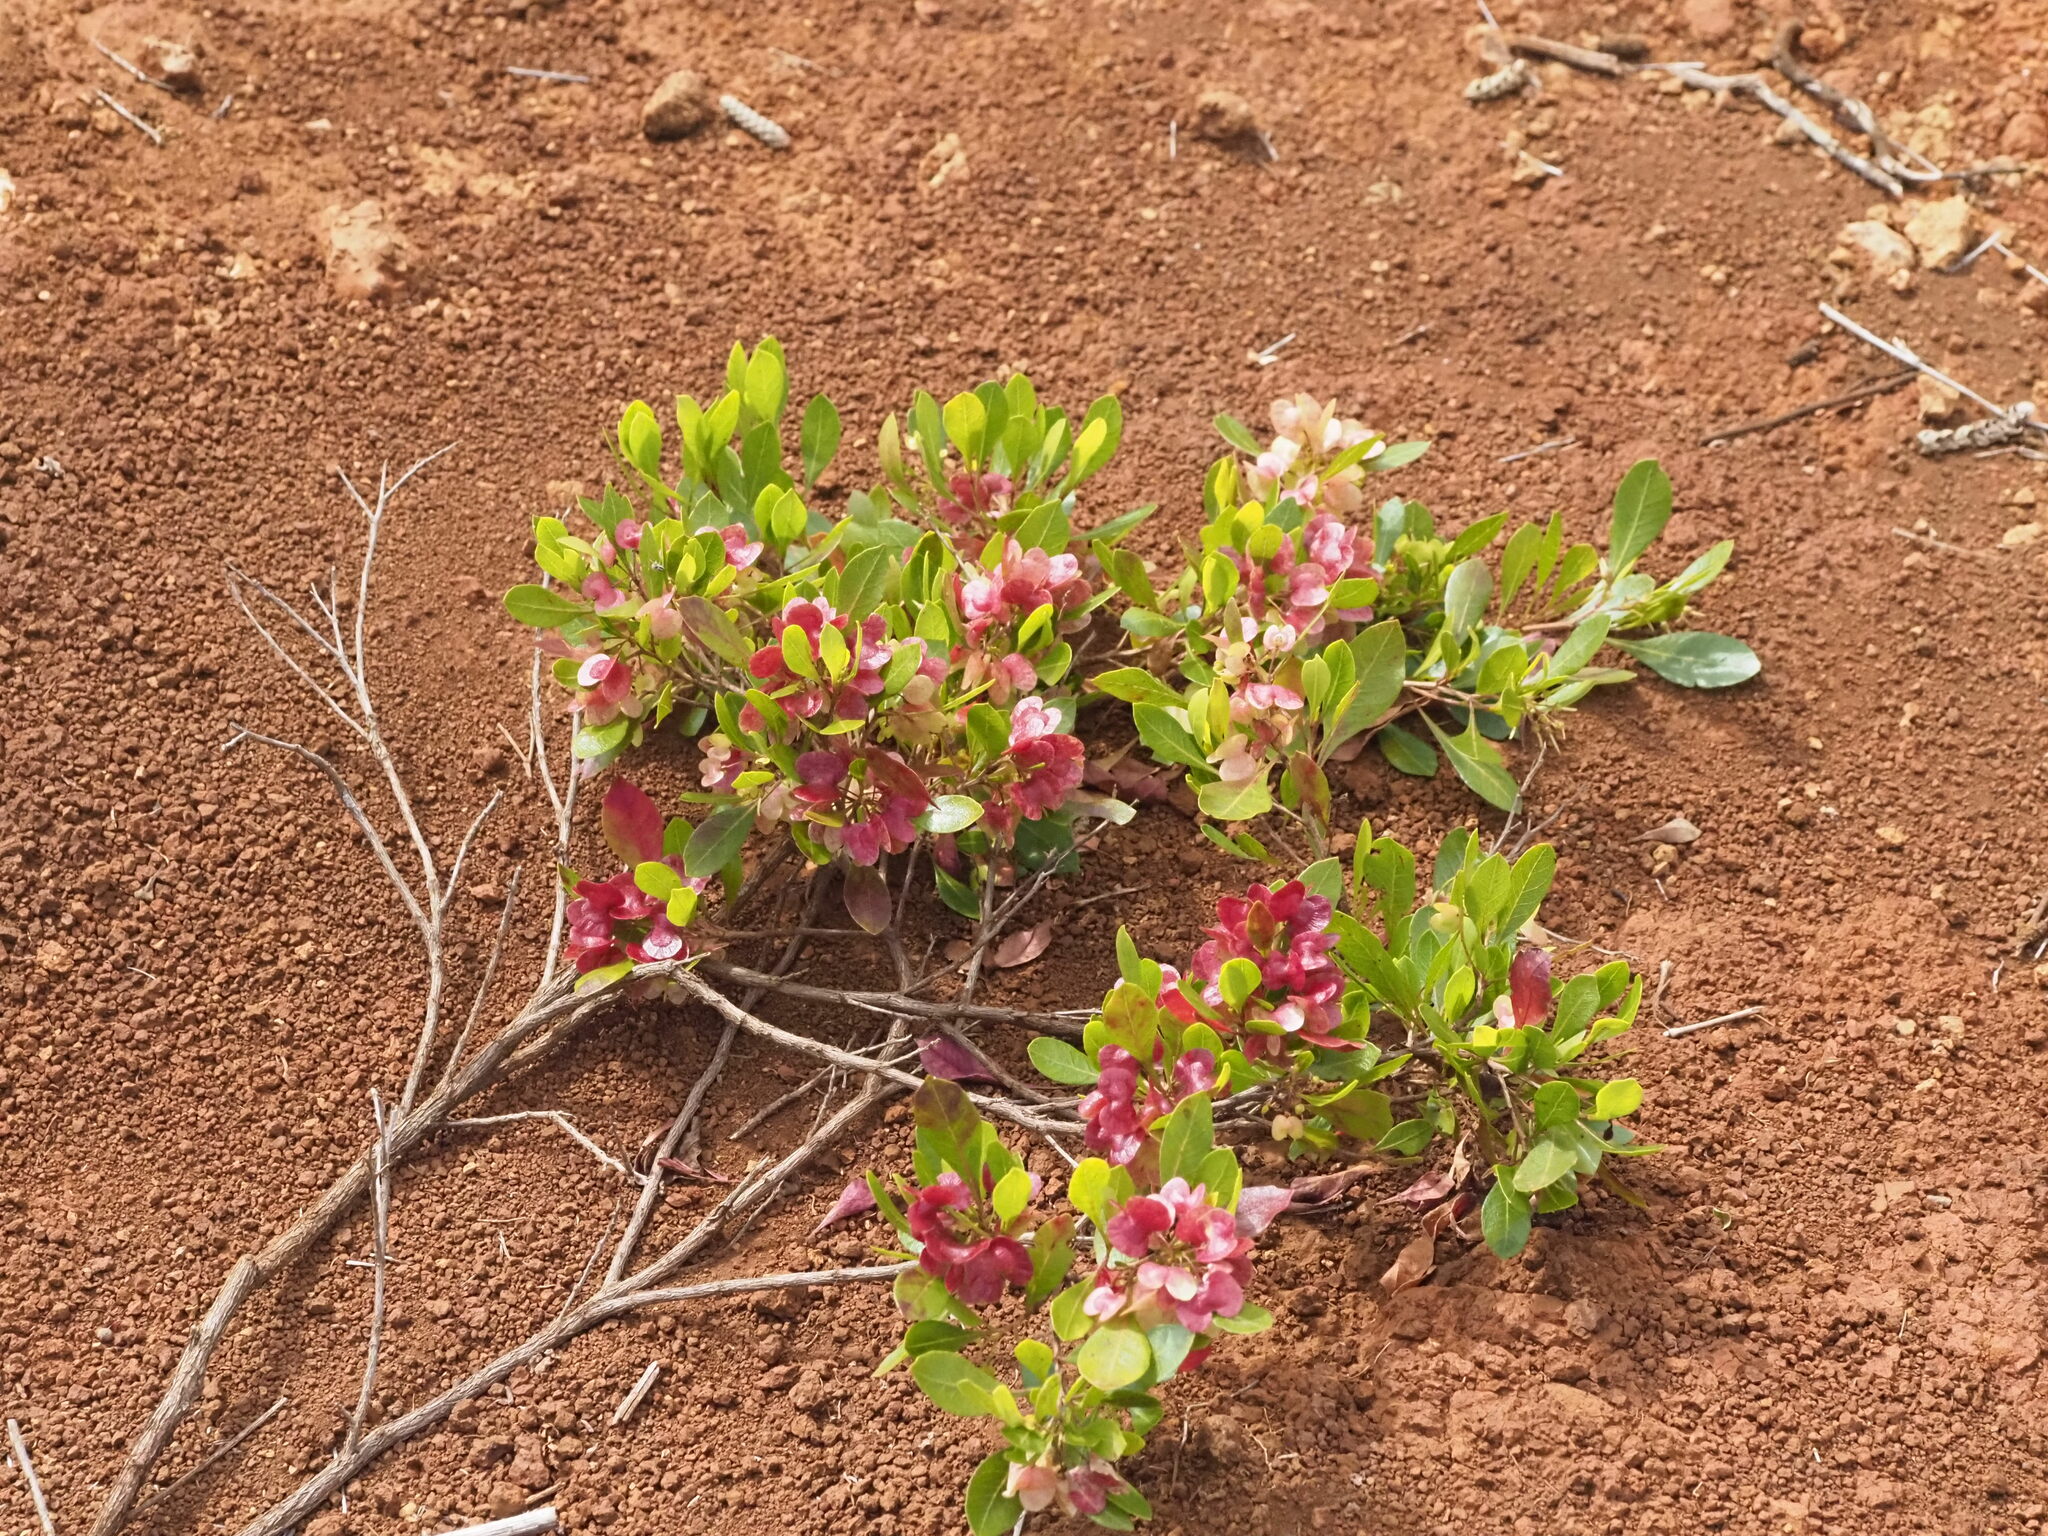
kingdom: Plantae
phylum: Tracheophyta
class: Magnoliopsida
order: Sapindales
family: Sapindaceae
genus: Dodonaea
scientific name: Dodonaea viscosa
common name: Hopbush
